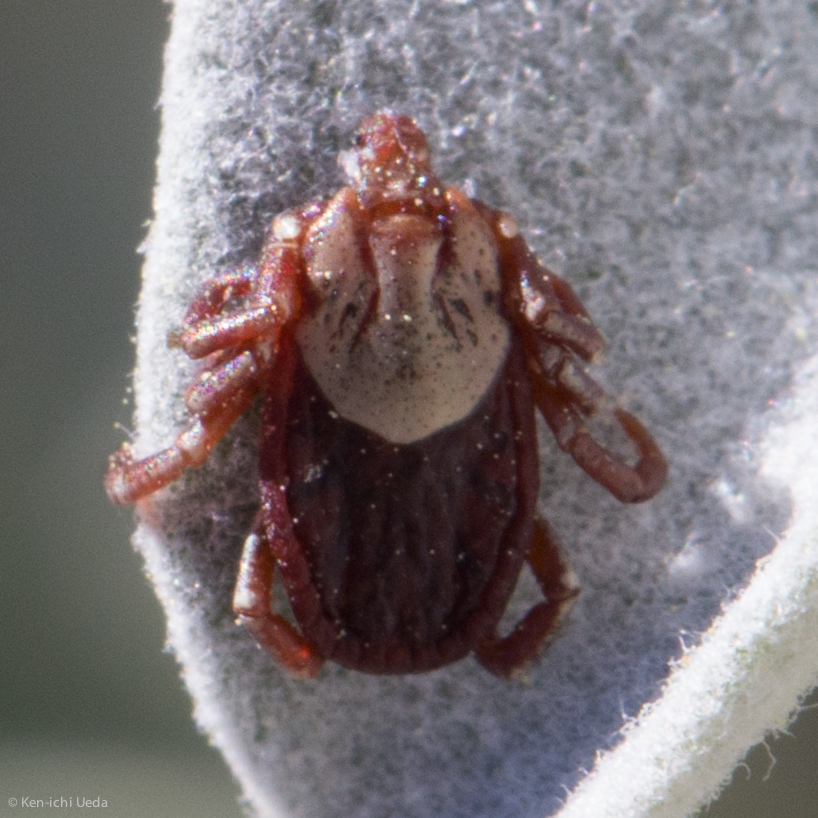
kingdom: Animalia
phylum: Arthropoda
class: Arachnida
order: Ixodida
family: Ixodidae
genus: Dermacentor
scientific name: Dermacentor variabilis
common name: American dog tick
